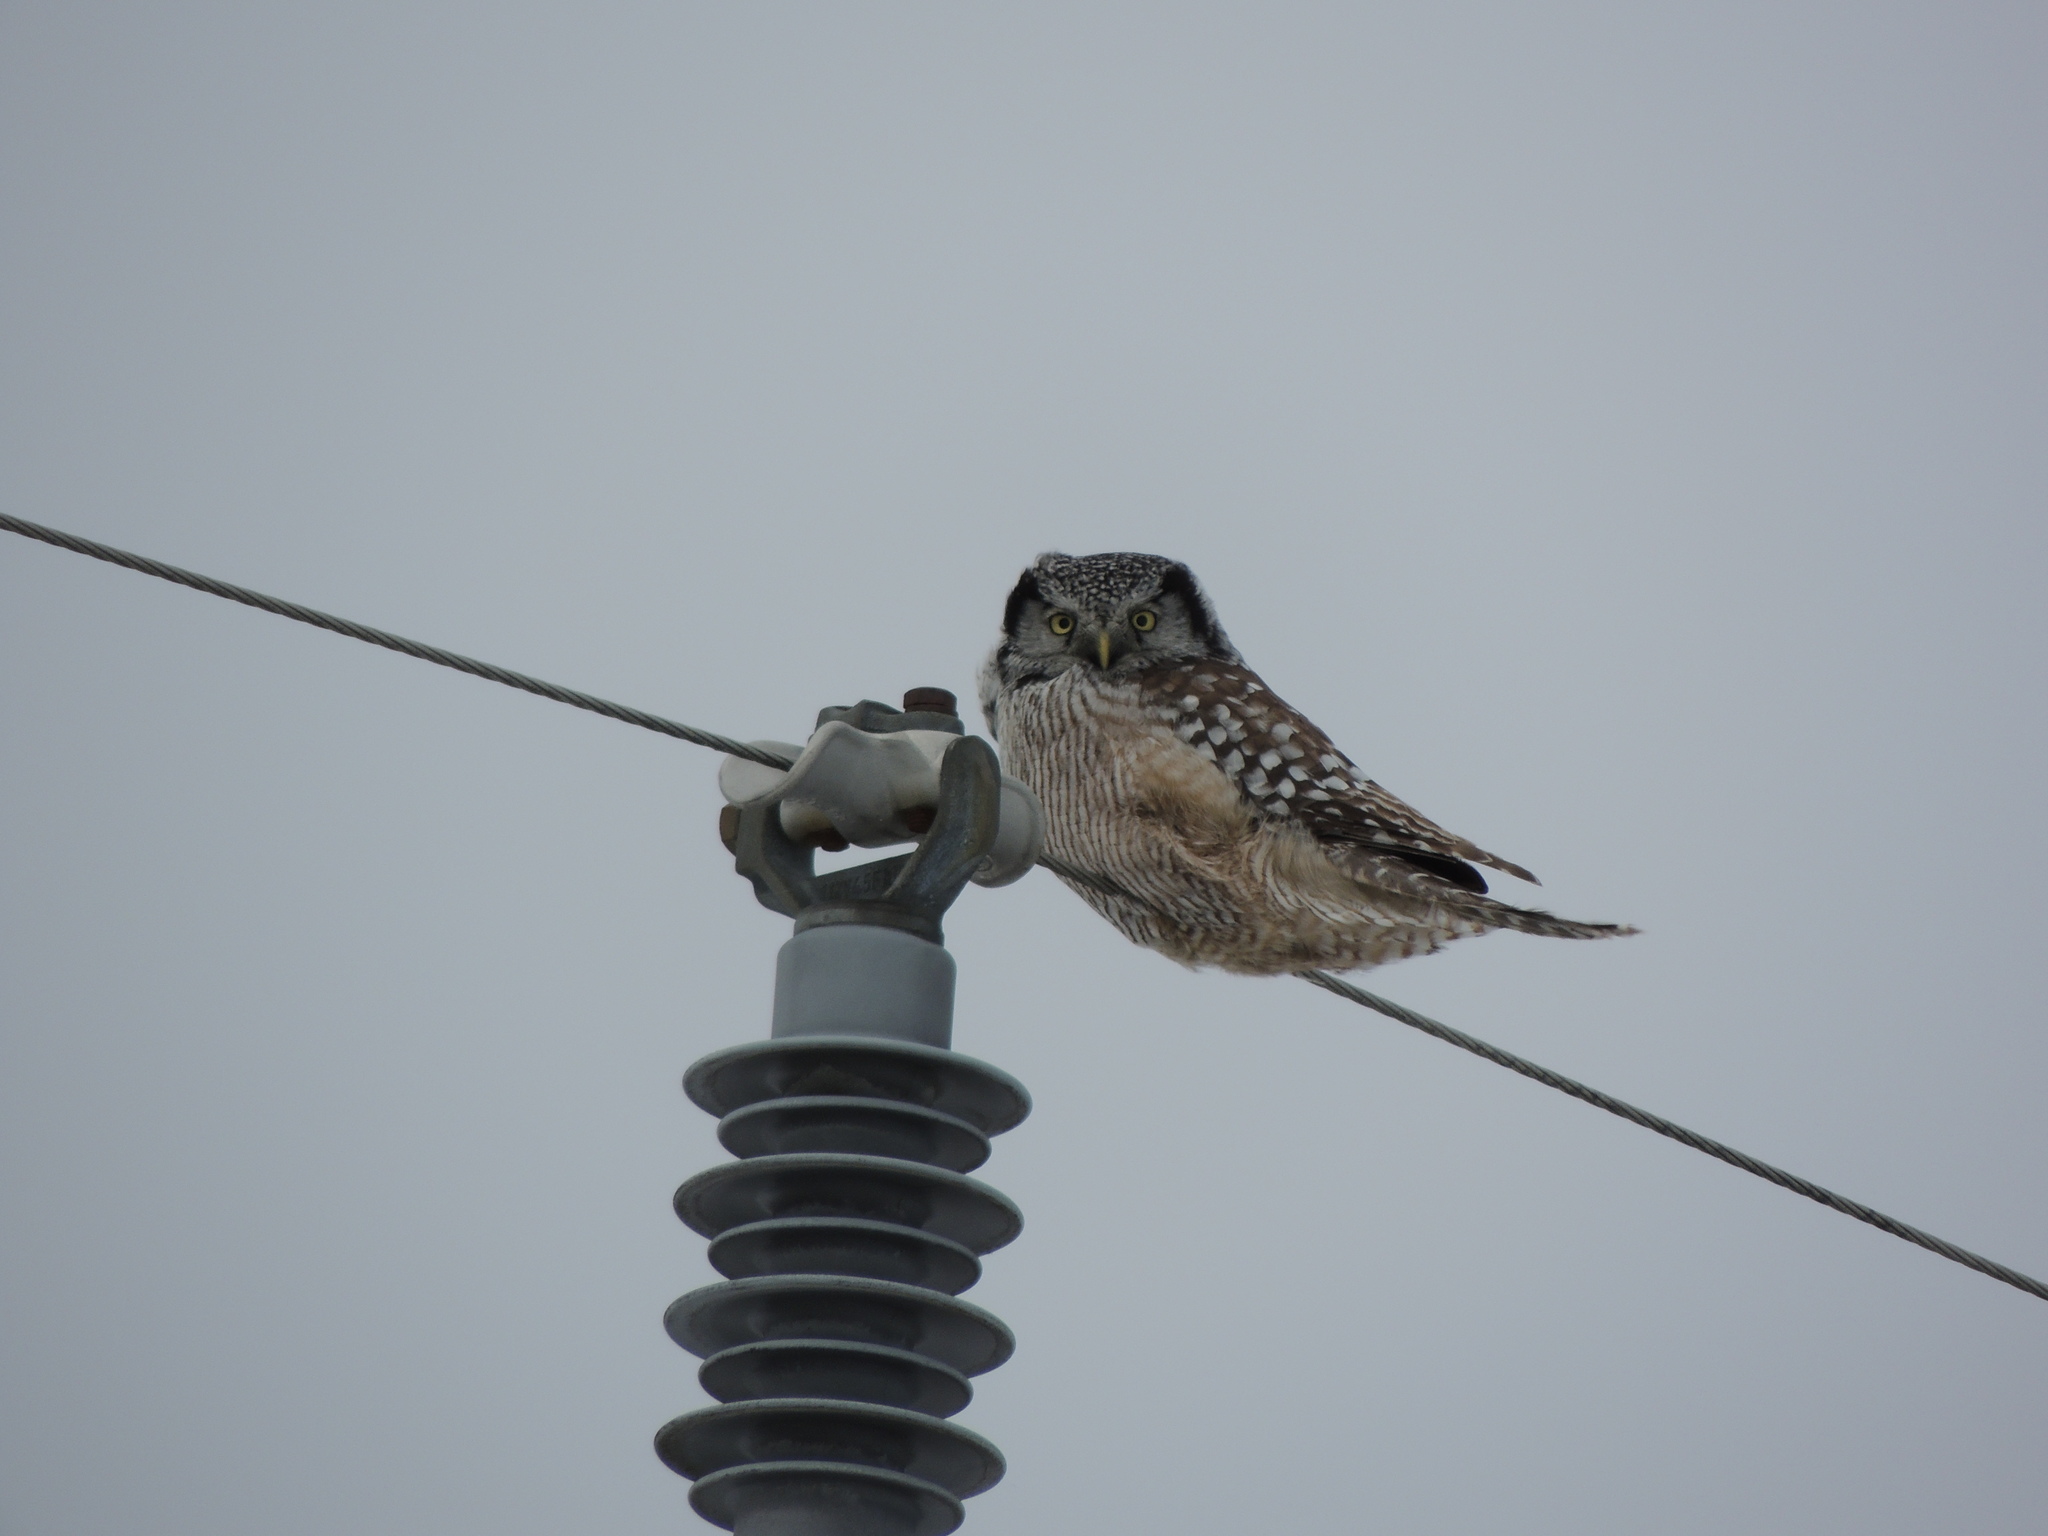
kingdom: Animalia
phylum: Chordata
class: Aves
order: Strigiformes
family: Strigidae
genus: Surnia
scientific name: Surnia ulula
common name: Northern hawk-owl
